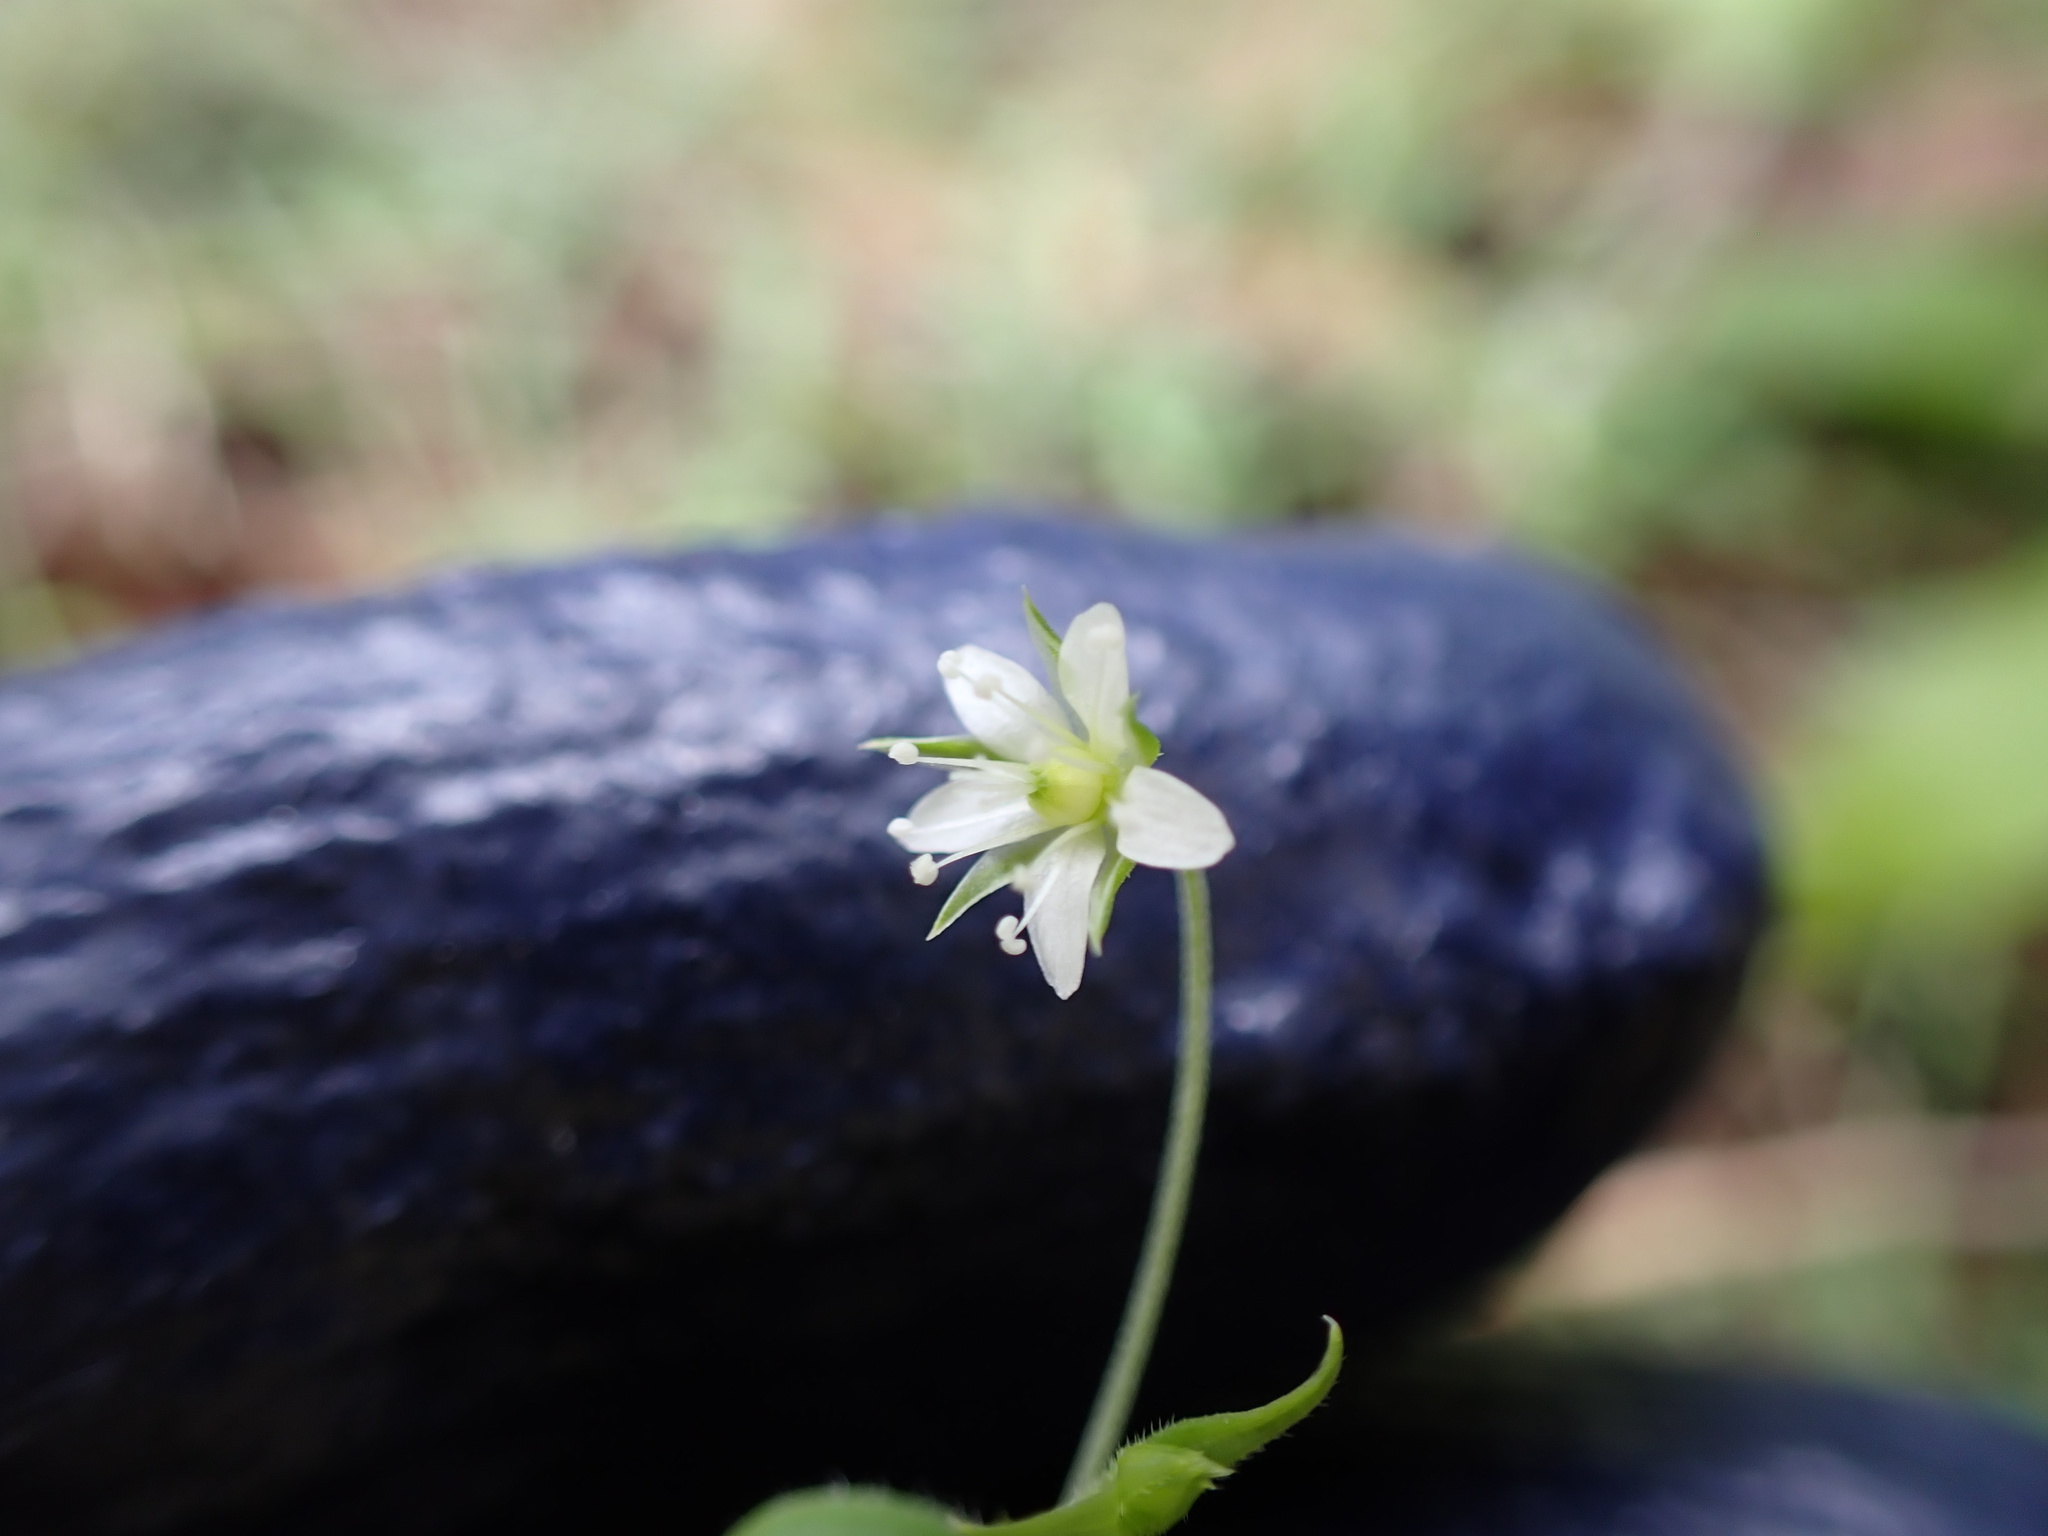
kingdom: Plantae
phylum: Tracheophyta
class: Magnoliopsida
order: Caryophyllales
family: Caryophyllaceae
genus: Arenaria
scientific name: Arenaria lanuginosa
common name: Spread sandwort
